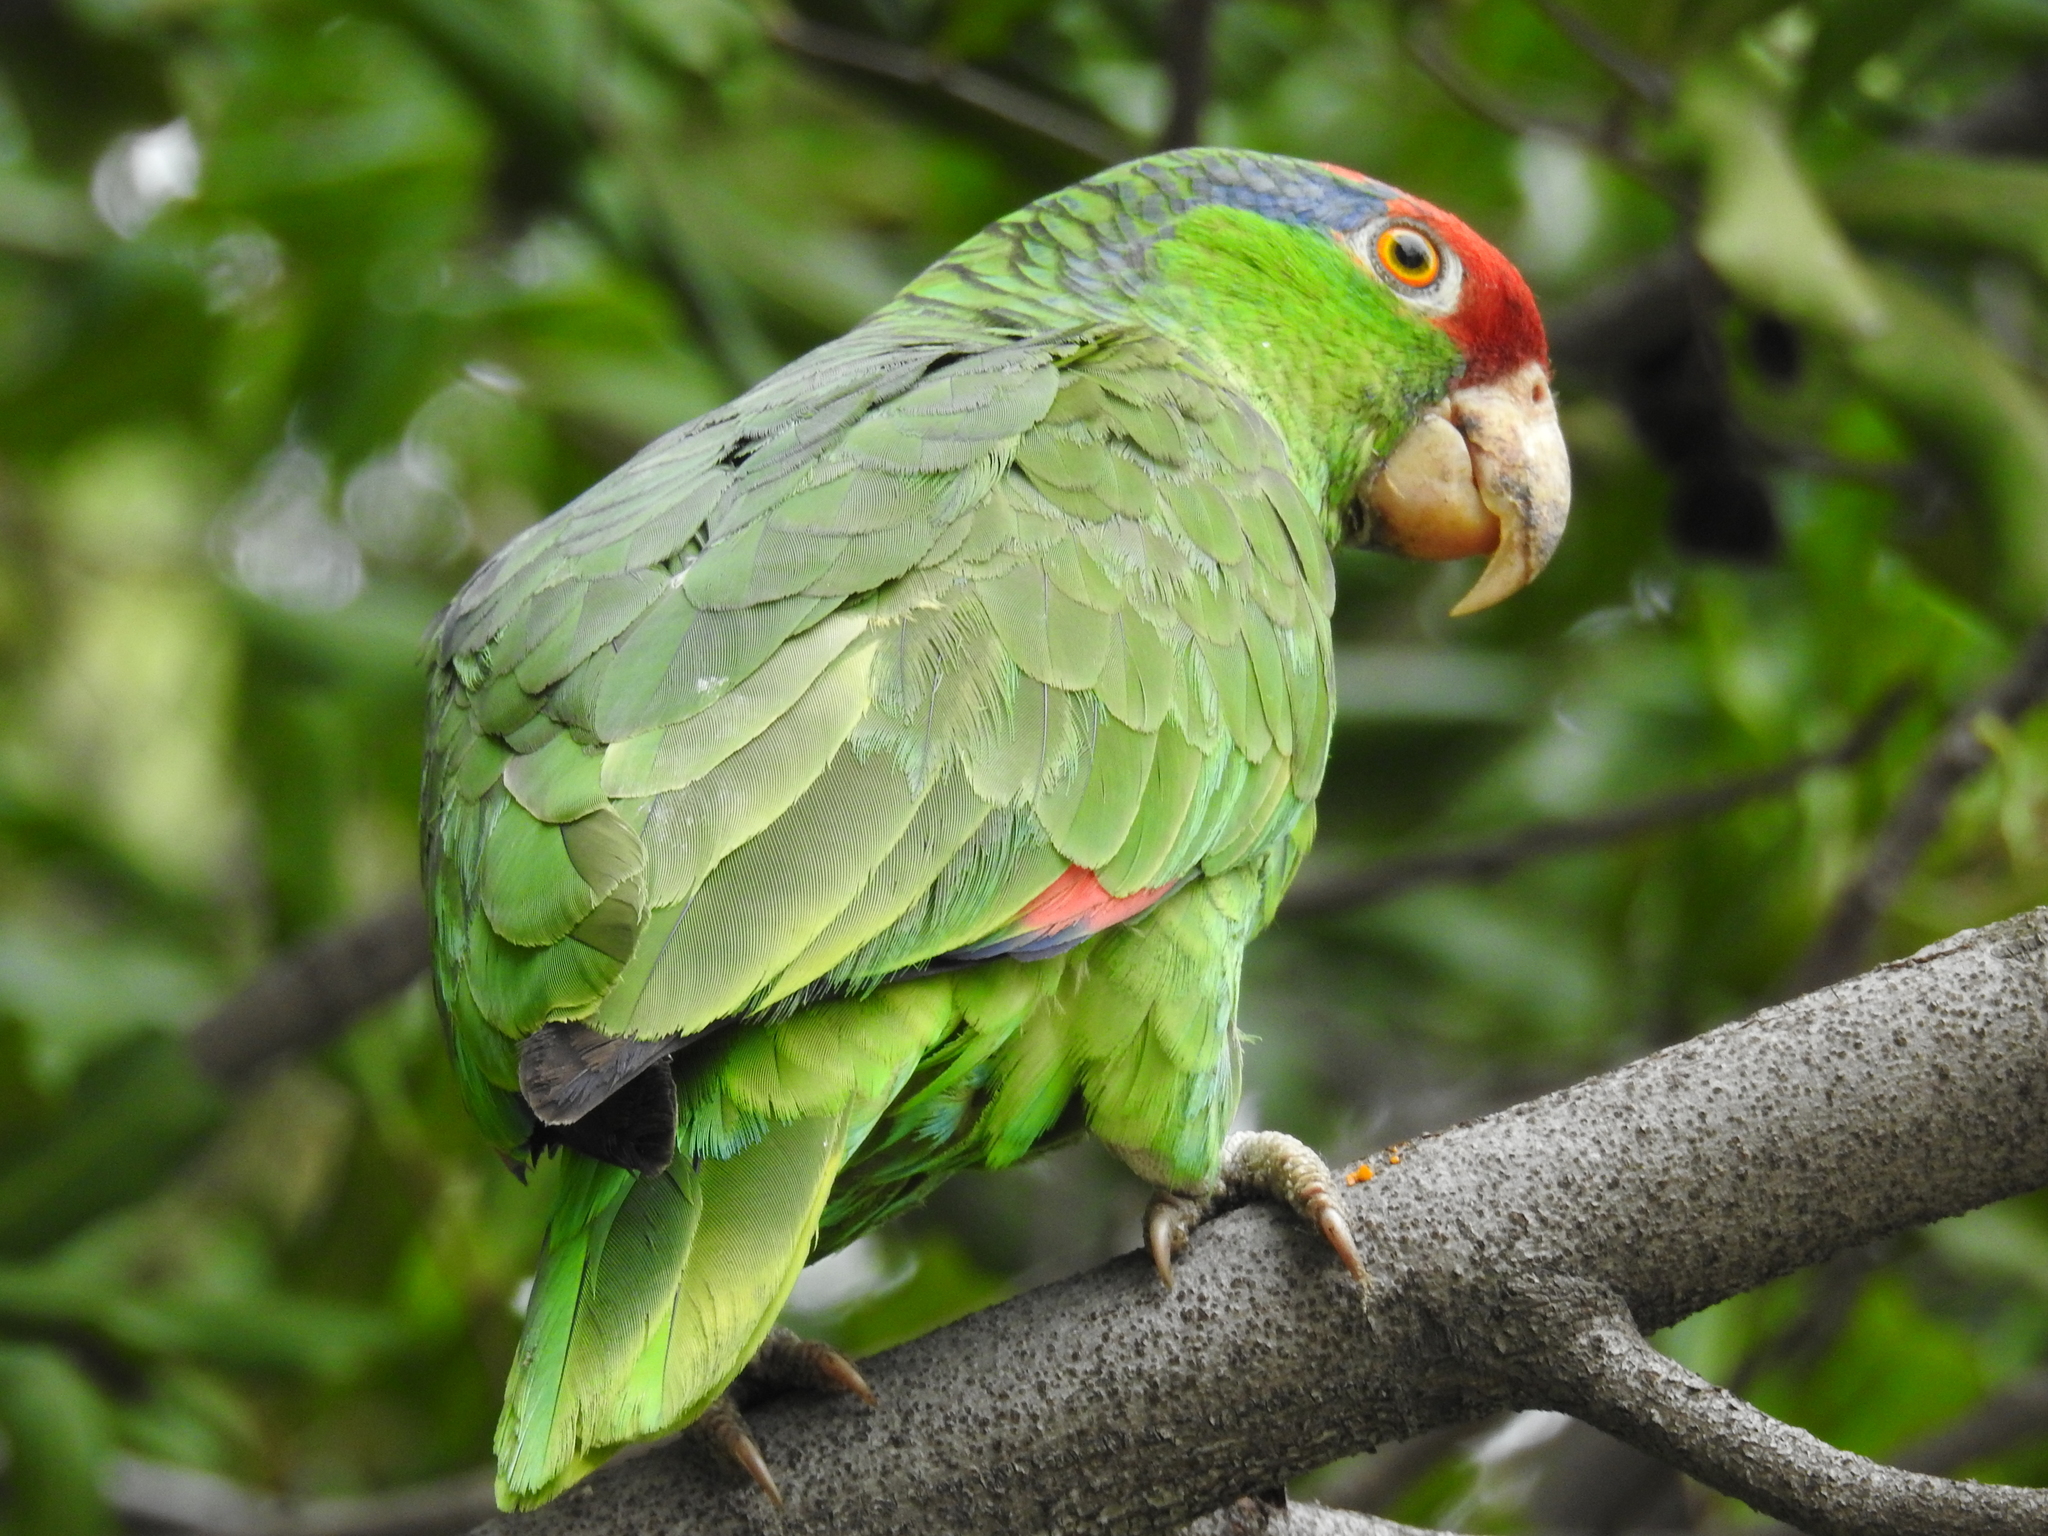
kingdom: Animalia
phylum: Chordata
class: Aves
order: Psittaciformes
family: Psittacidae
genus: Amazona
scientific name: Amazona viridigenalis
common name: Red-crowned amazon
